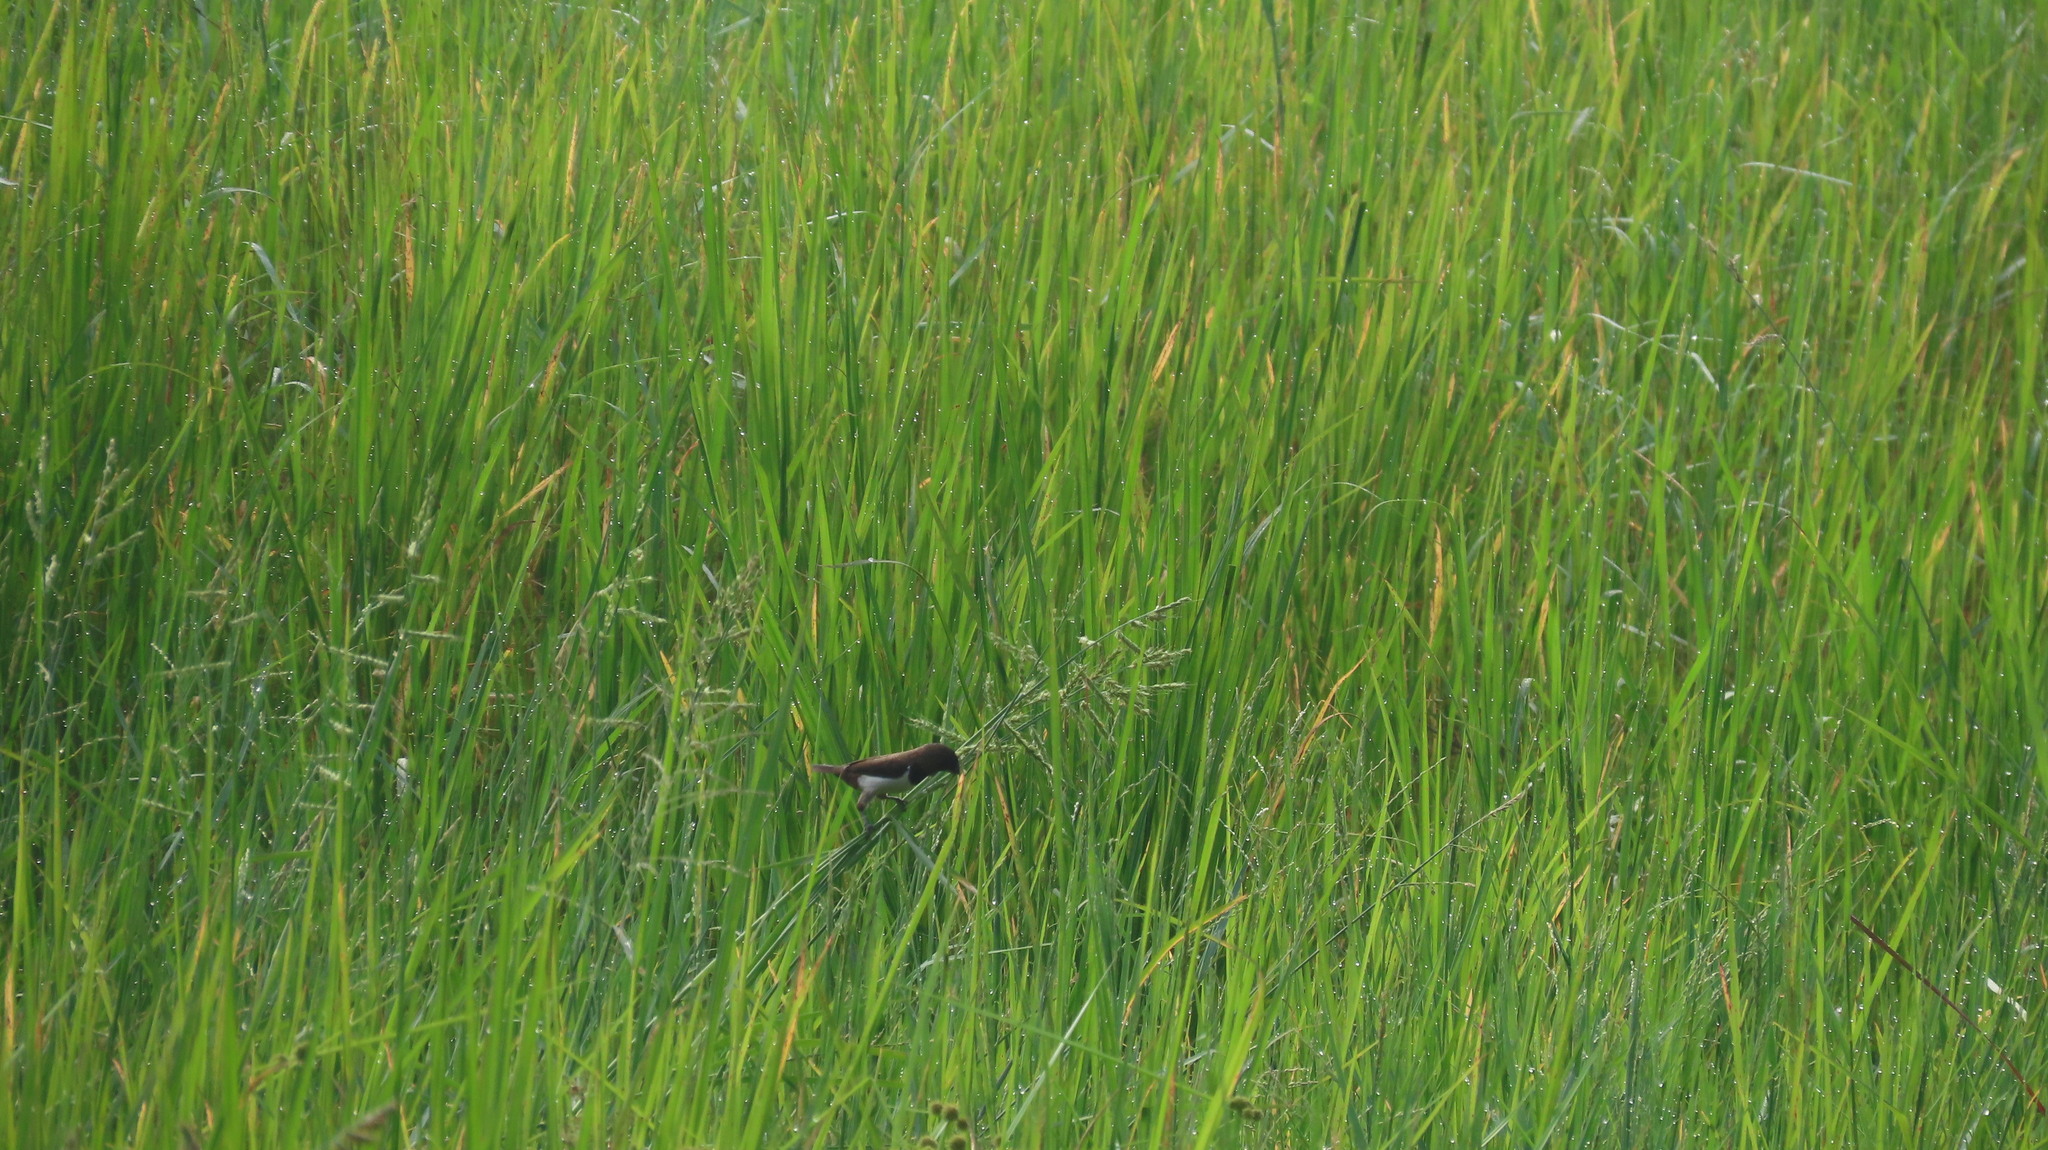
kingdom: Animalia
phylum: Chordata
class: Aves
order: Passeriformes
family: Estrildidae
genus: Lonchura
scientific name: Lonchura striata
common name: White-rumped munia
